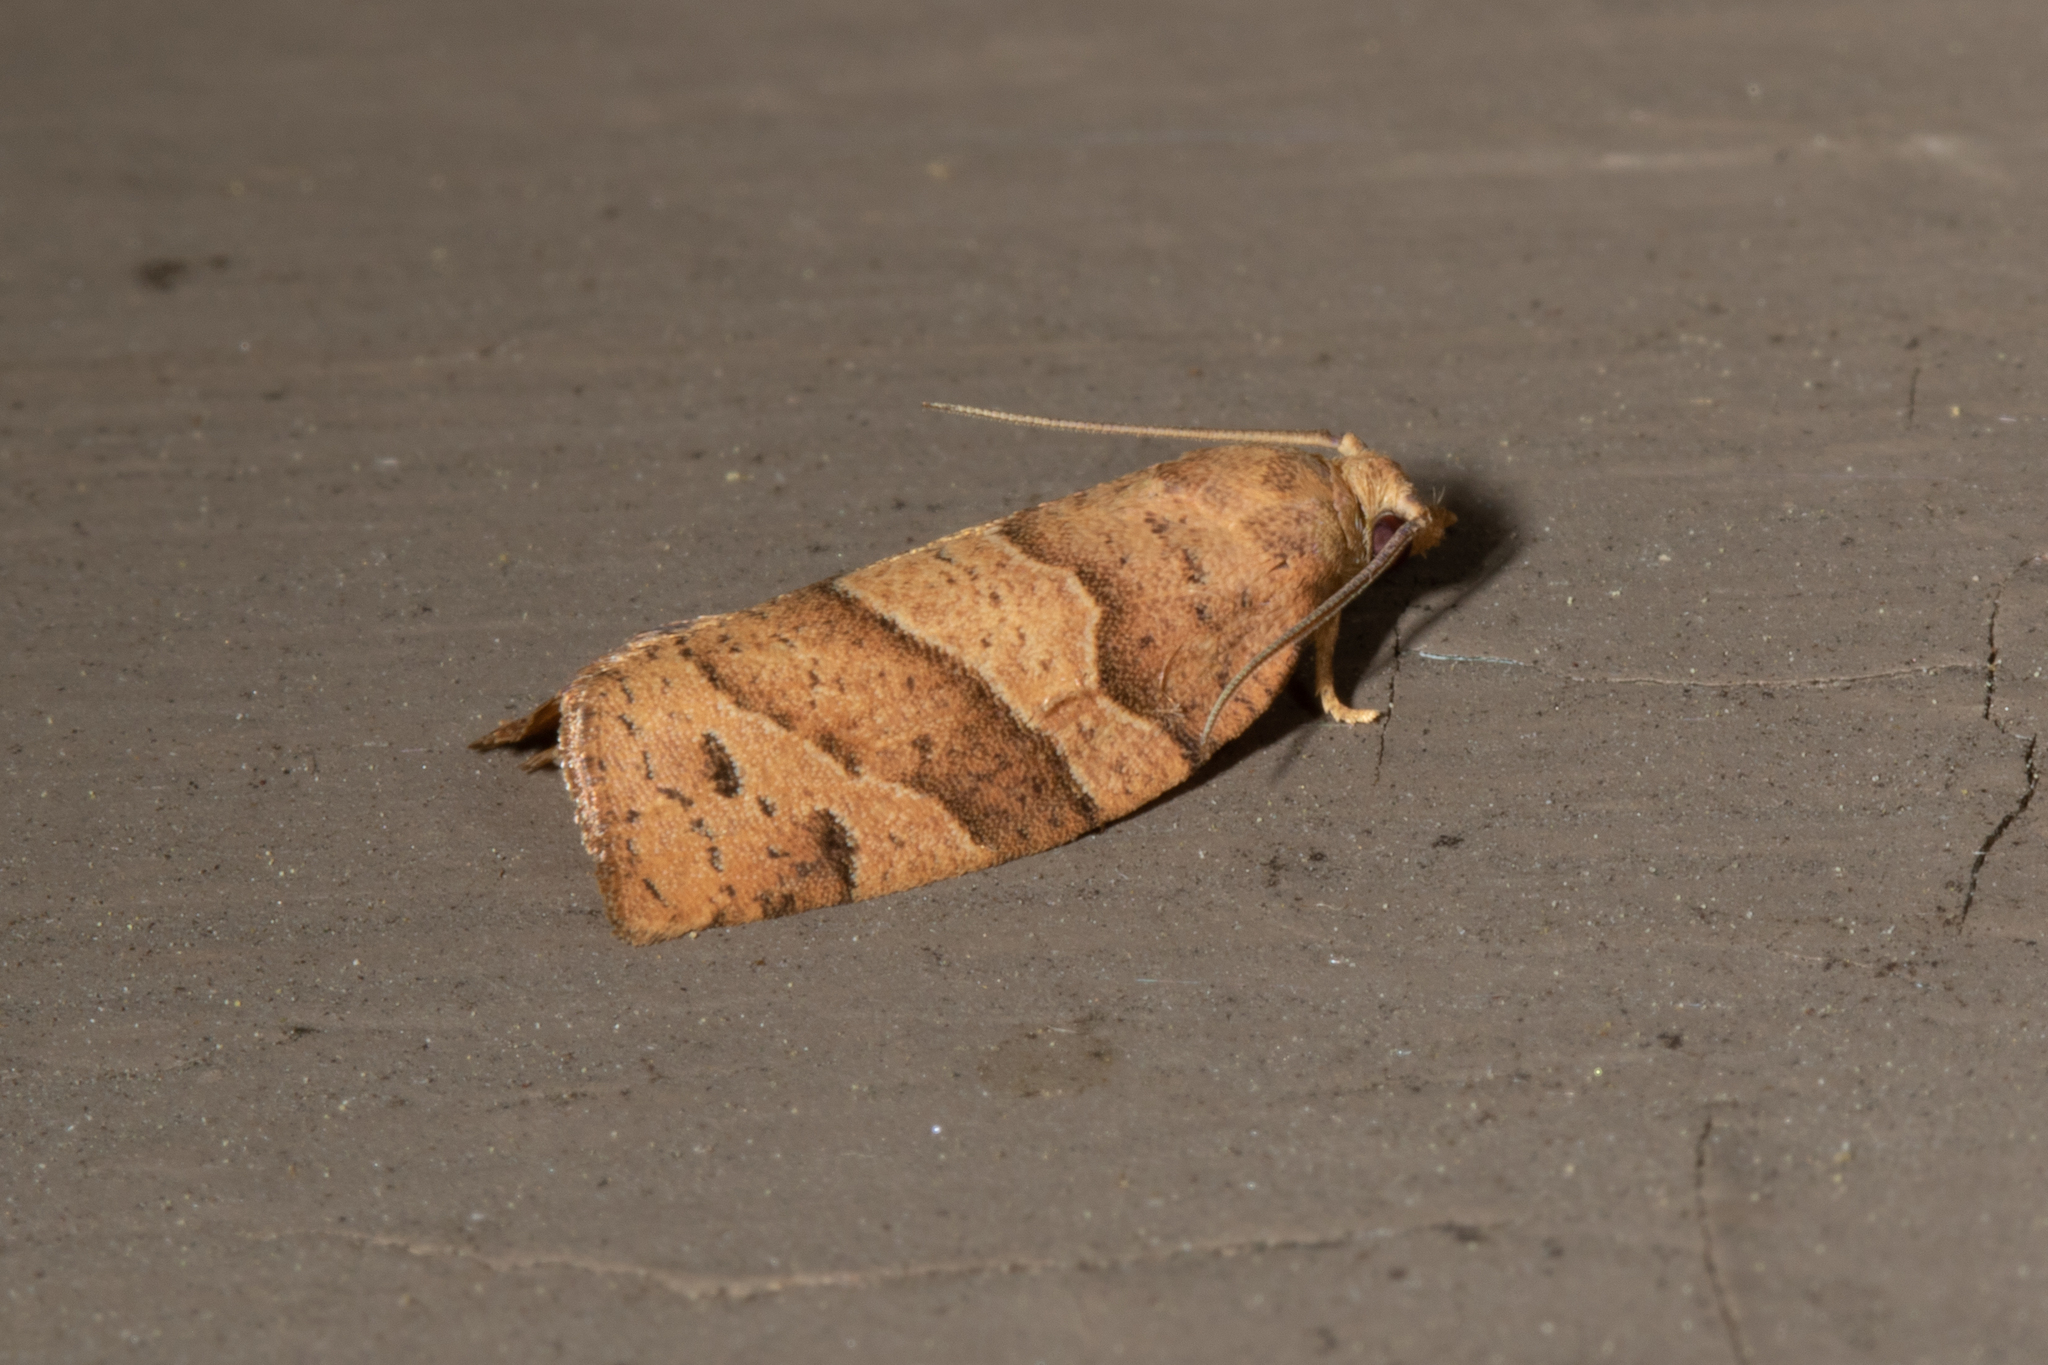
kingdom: Animalia
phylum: Arthropoda
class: Insecta
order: Lepidoptera
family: Tortricidae
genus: Pandemis
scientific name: Pandemis lamprosana
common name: Woodgrain leafroller moth
